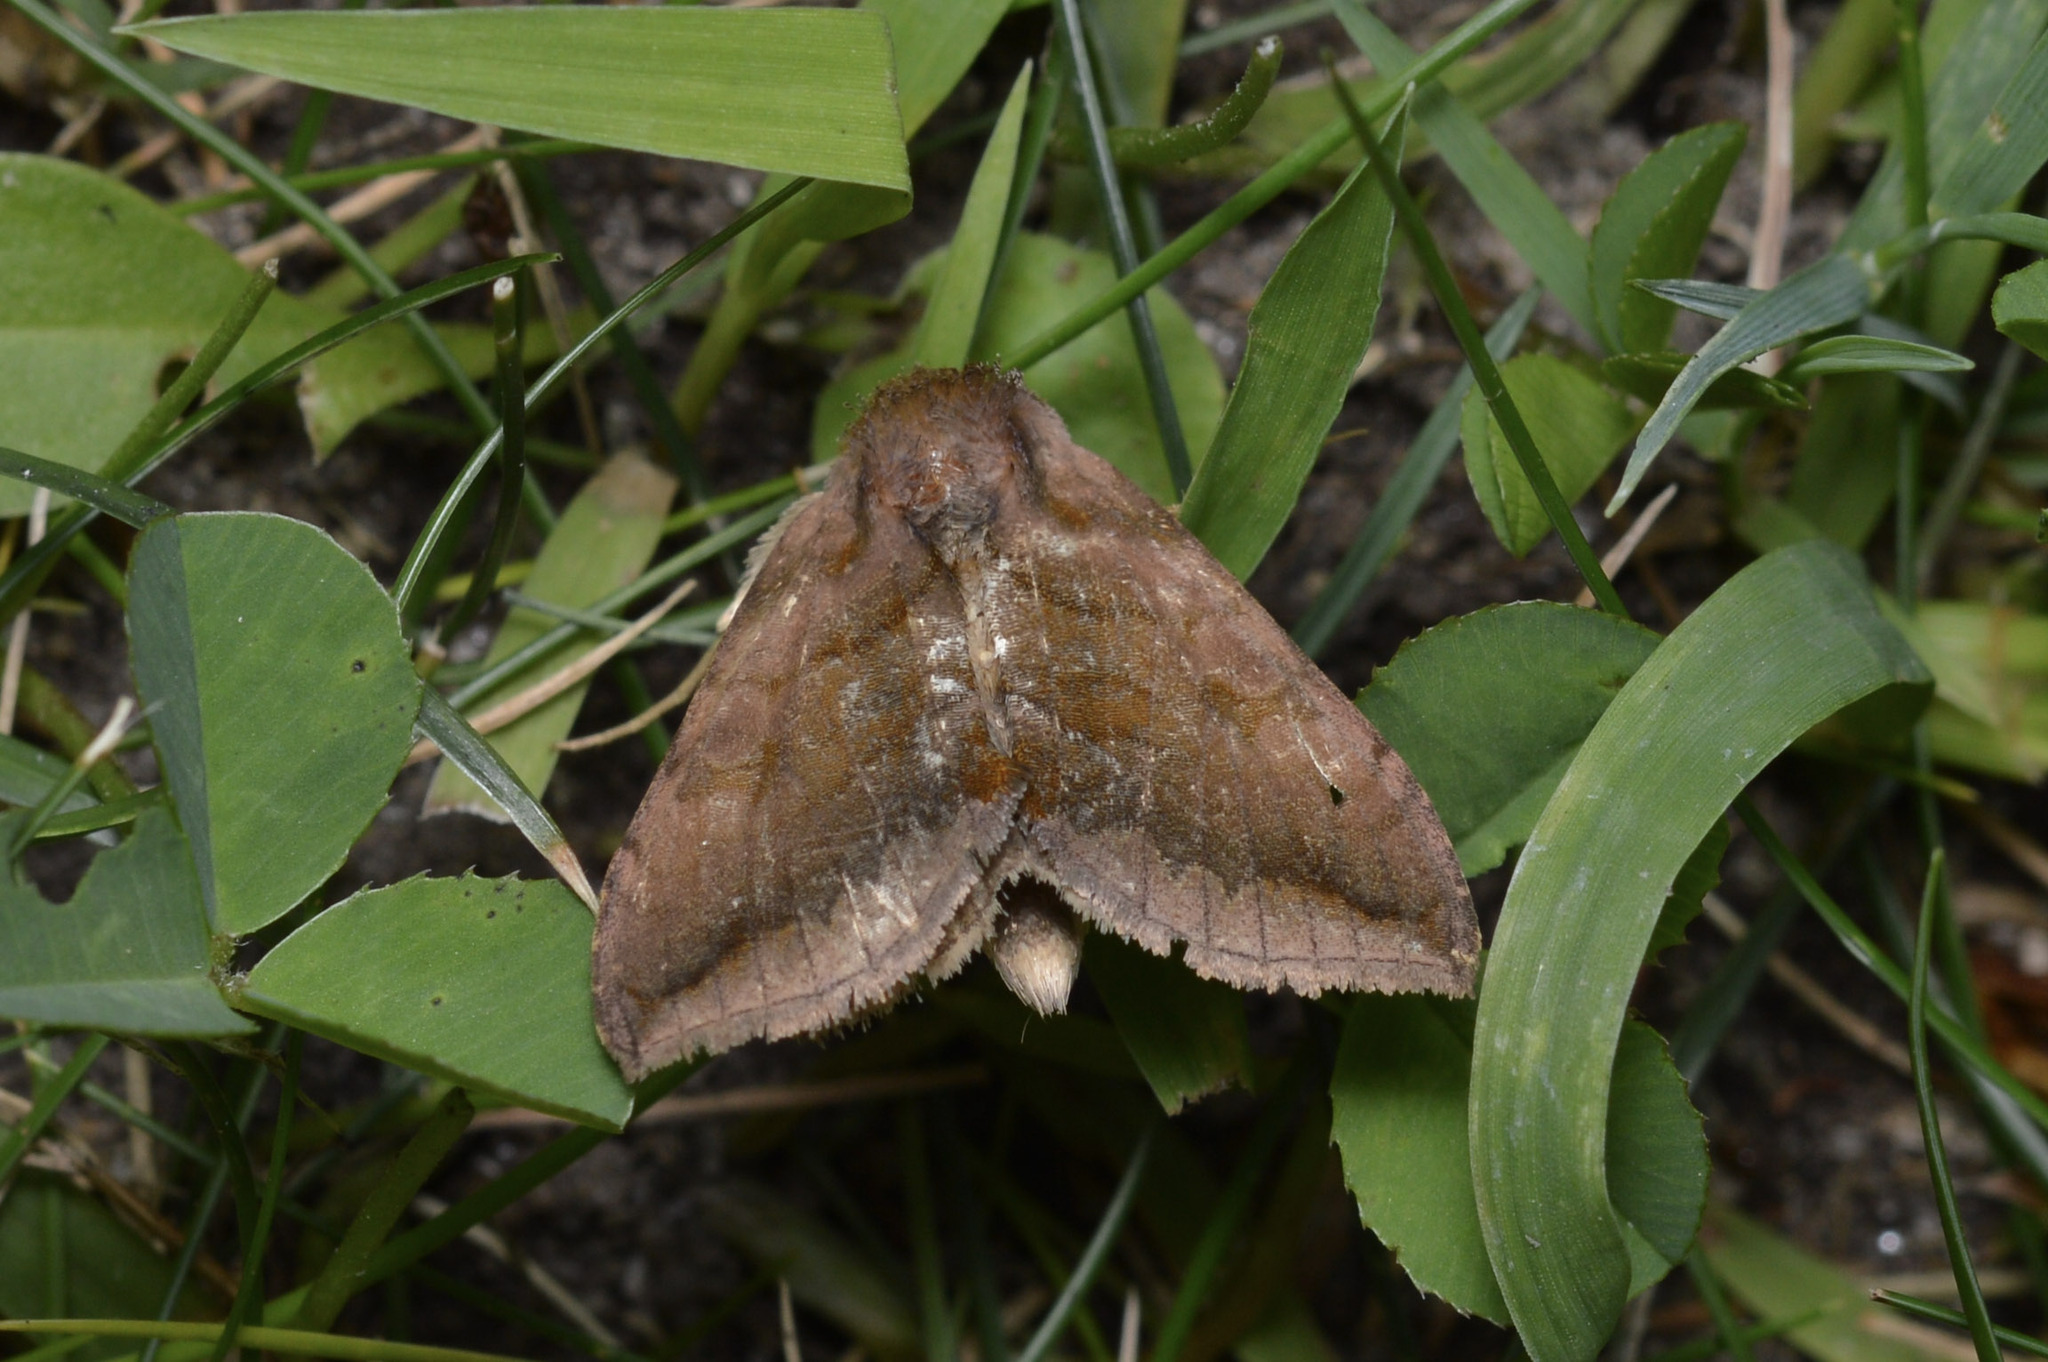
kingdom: Animalia
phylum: Arthropoda
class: Insecta
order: Lepidoptera
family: Noctuidae
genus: Allagrapha
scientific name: Allagrapha aerea
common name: Unspotted looper moth
